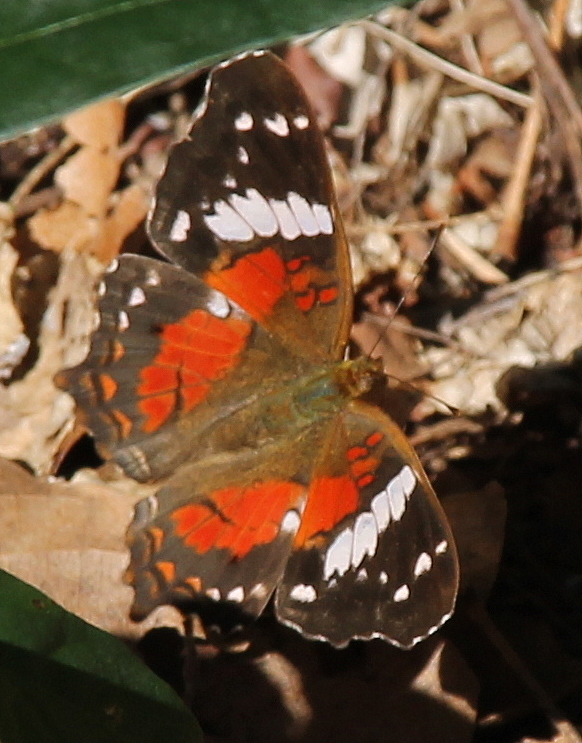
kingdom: Animalia
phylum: Arthropoda
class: Insecta
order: Lepidoptera
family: Nymphalidae
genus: Anartia
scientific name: Anartia amathea
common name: Red peacock
